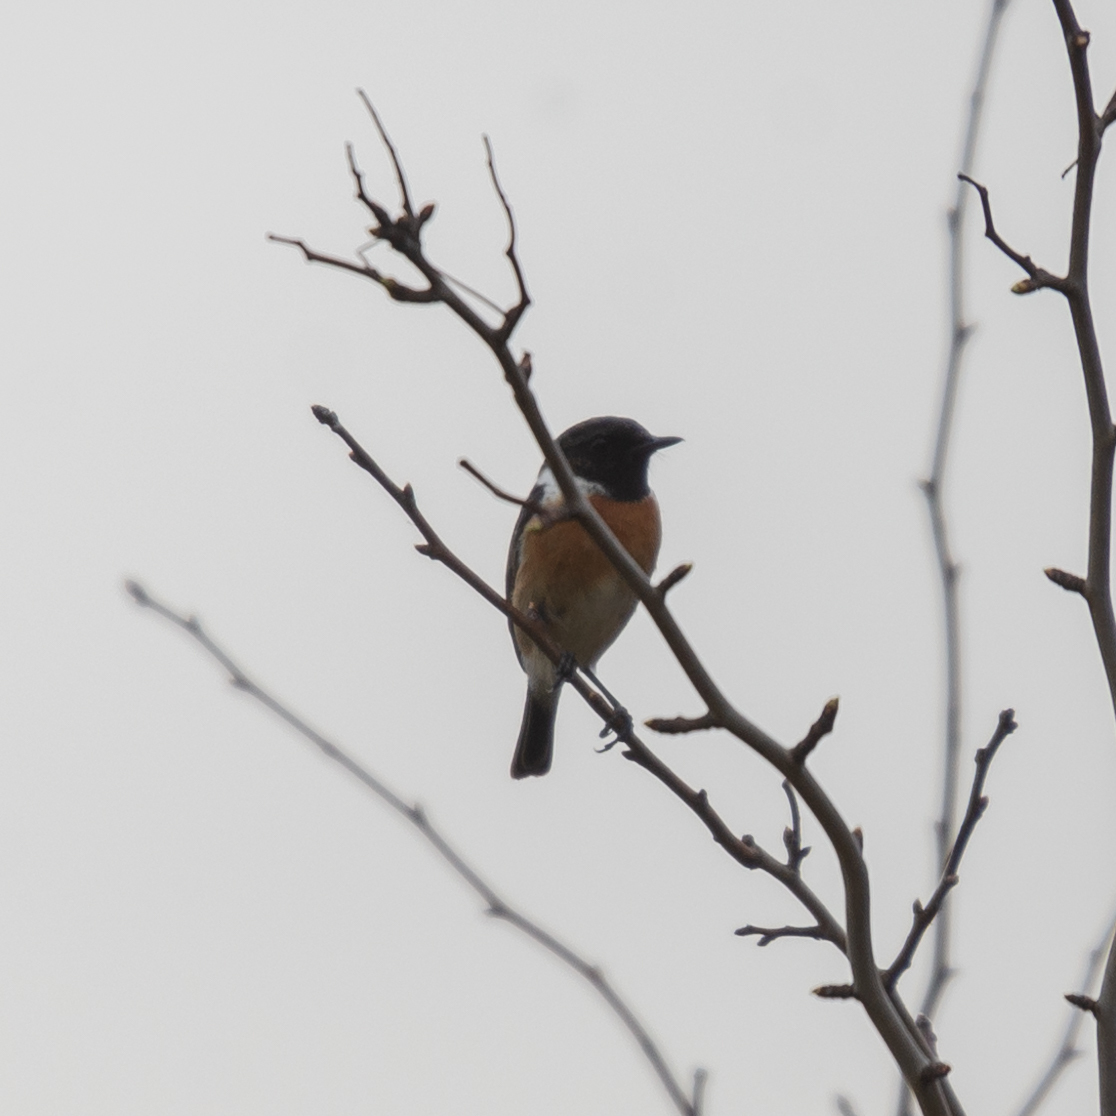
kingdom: Animalia
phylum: Chordata
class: Aves
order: Passeriformes
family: Muscicapidae
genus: Saxicola
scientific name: Saxicola rubicola
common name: European stonechat
